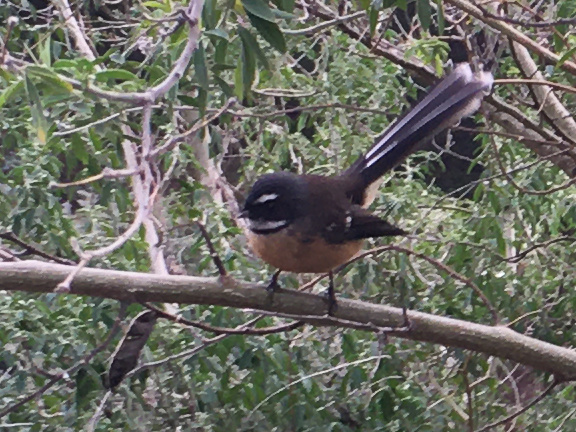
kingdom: Animalia
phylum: Chordata
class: Aves
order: Passeriformes
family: Rhipiduridae
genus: Rhipidura
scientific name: Rhipidura fuliginosa
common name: New zealand fantail
